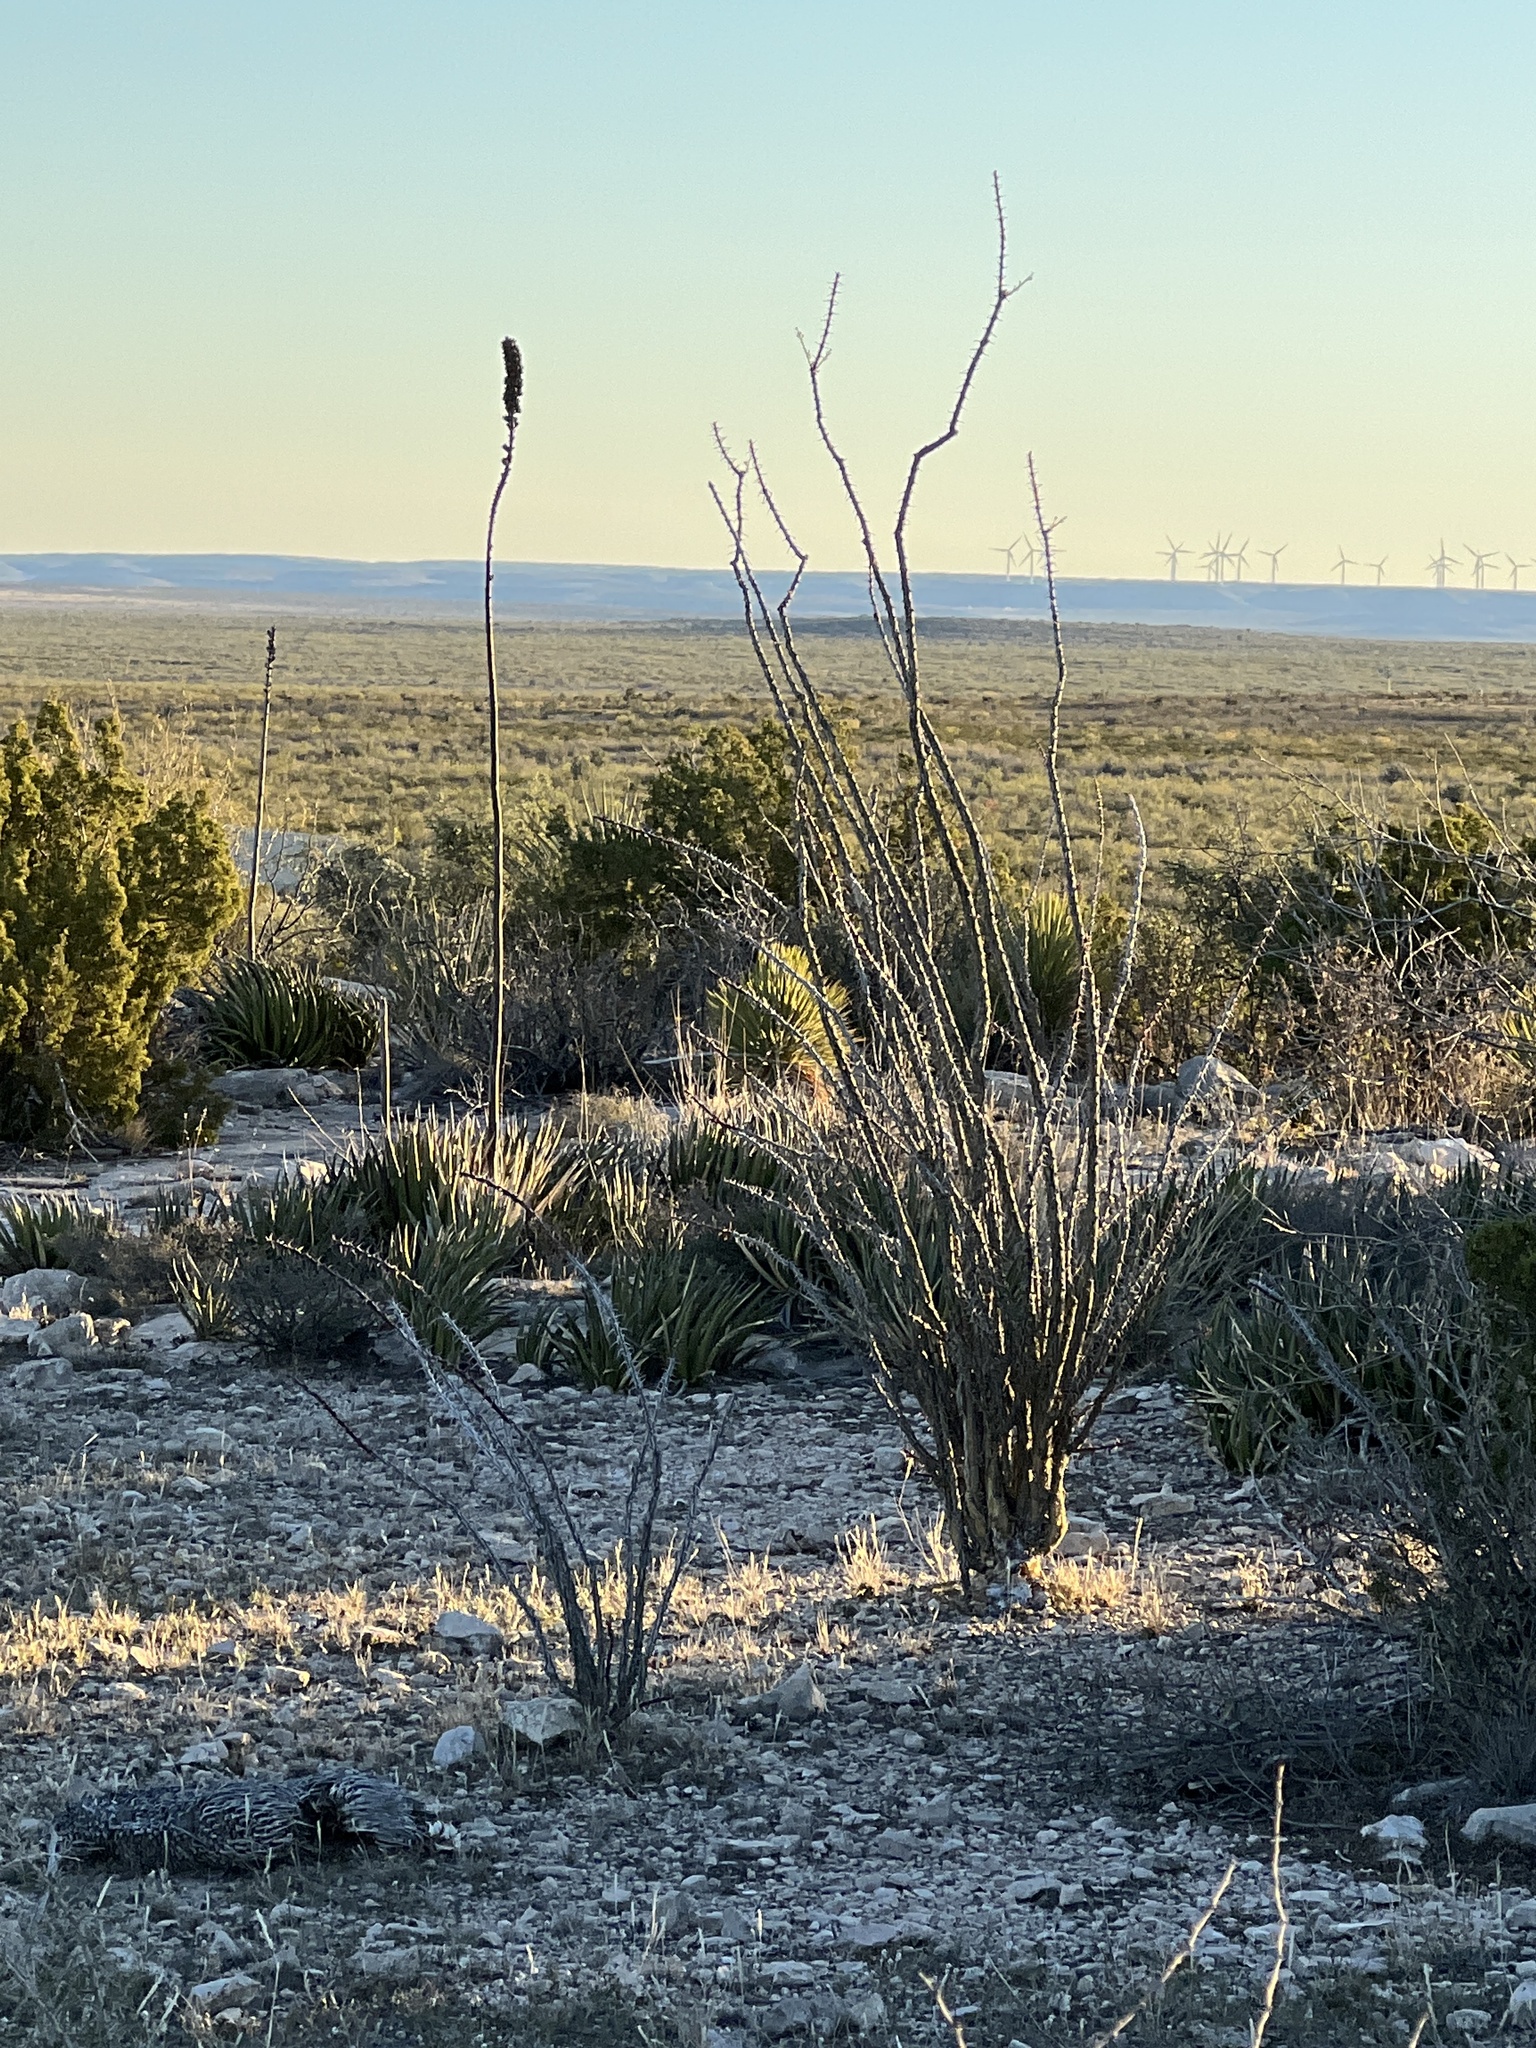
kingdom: Plantae
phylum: Tracheophyta
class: Magnoliopsida
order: Ericales
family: Fouquieriaceae
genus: Fouquieria
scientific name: Fouquieria splendens
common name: Vine-cactus
